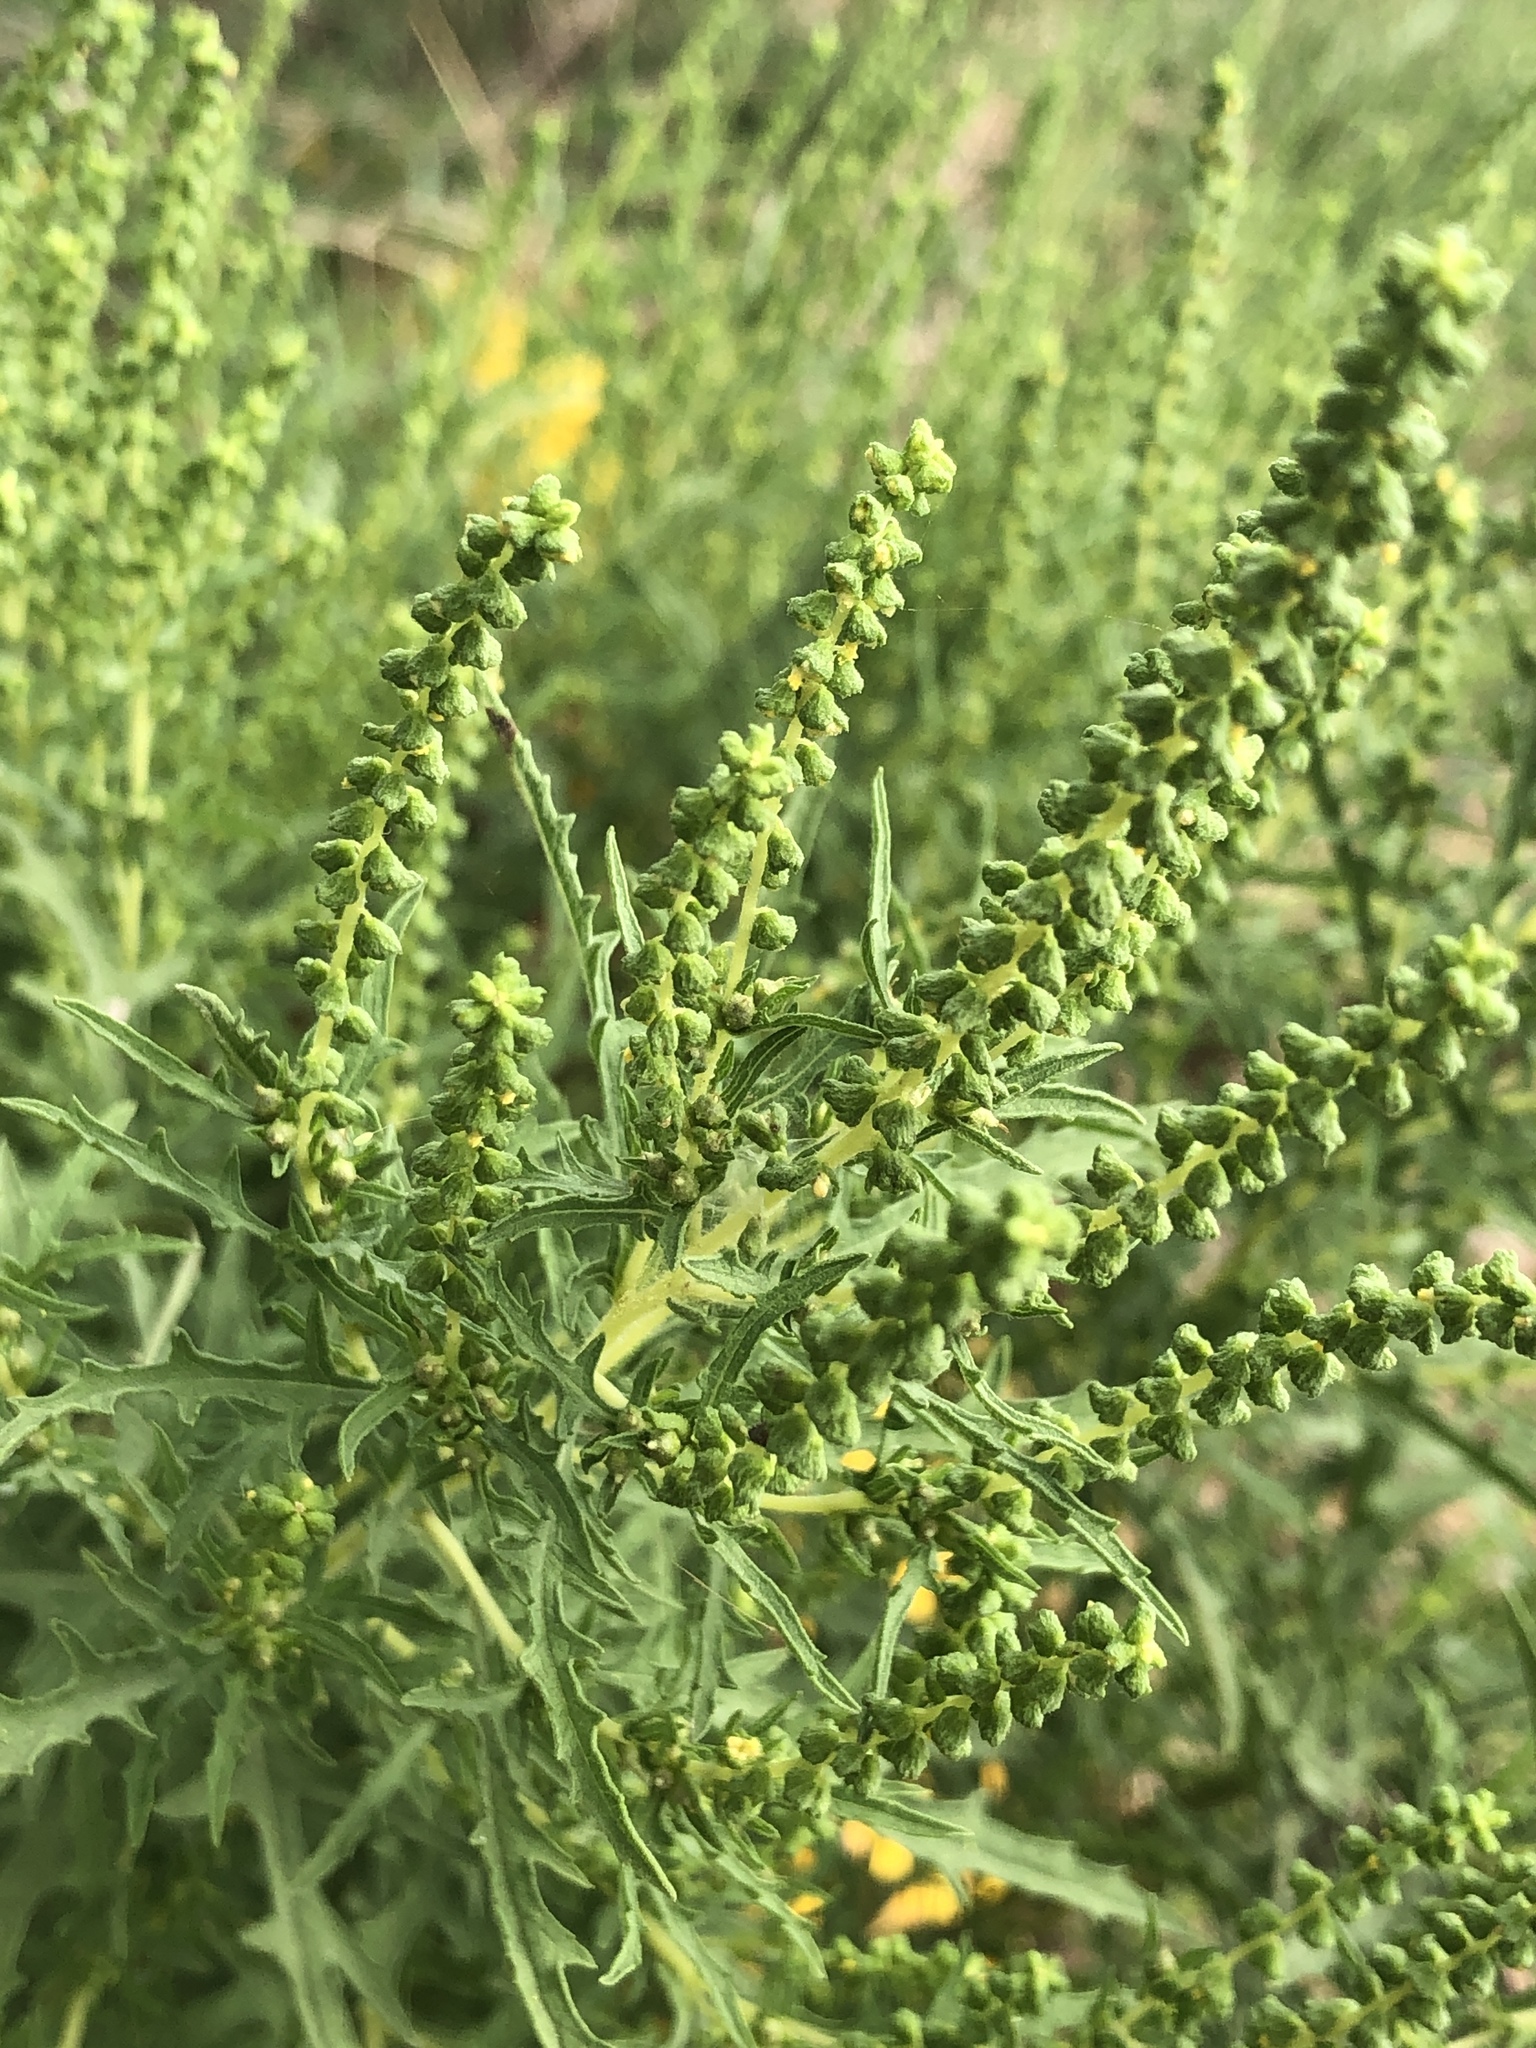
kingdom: Plantae
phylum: Tracheophyta
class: Magnoliopsida
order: Asterales
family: Asteraceae
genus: Ambrosia
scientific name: Ambrosia psilostachya
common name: Perennial ragweed
